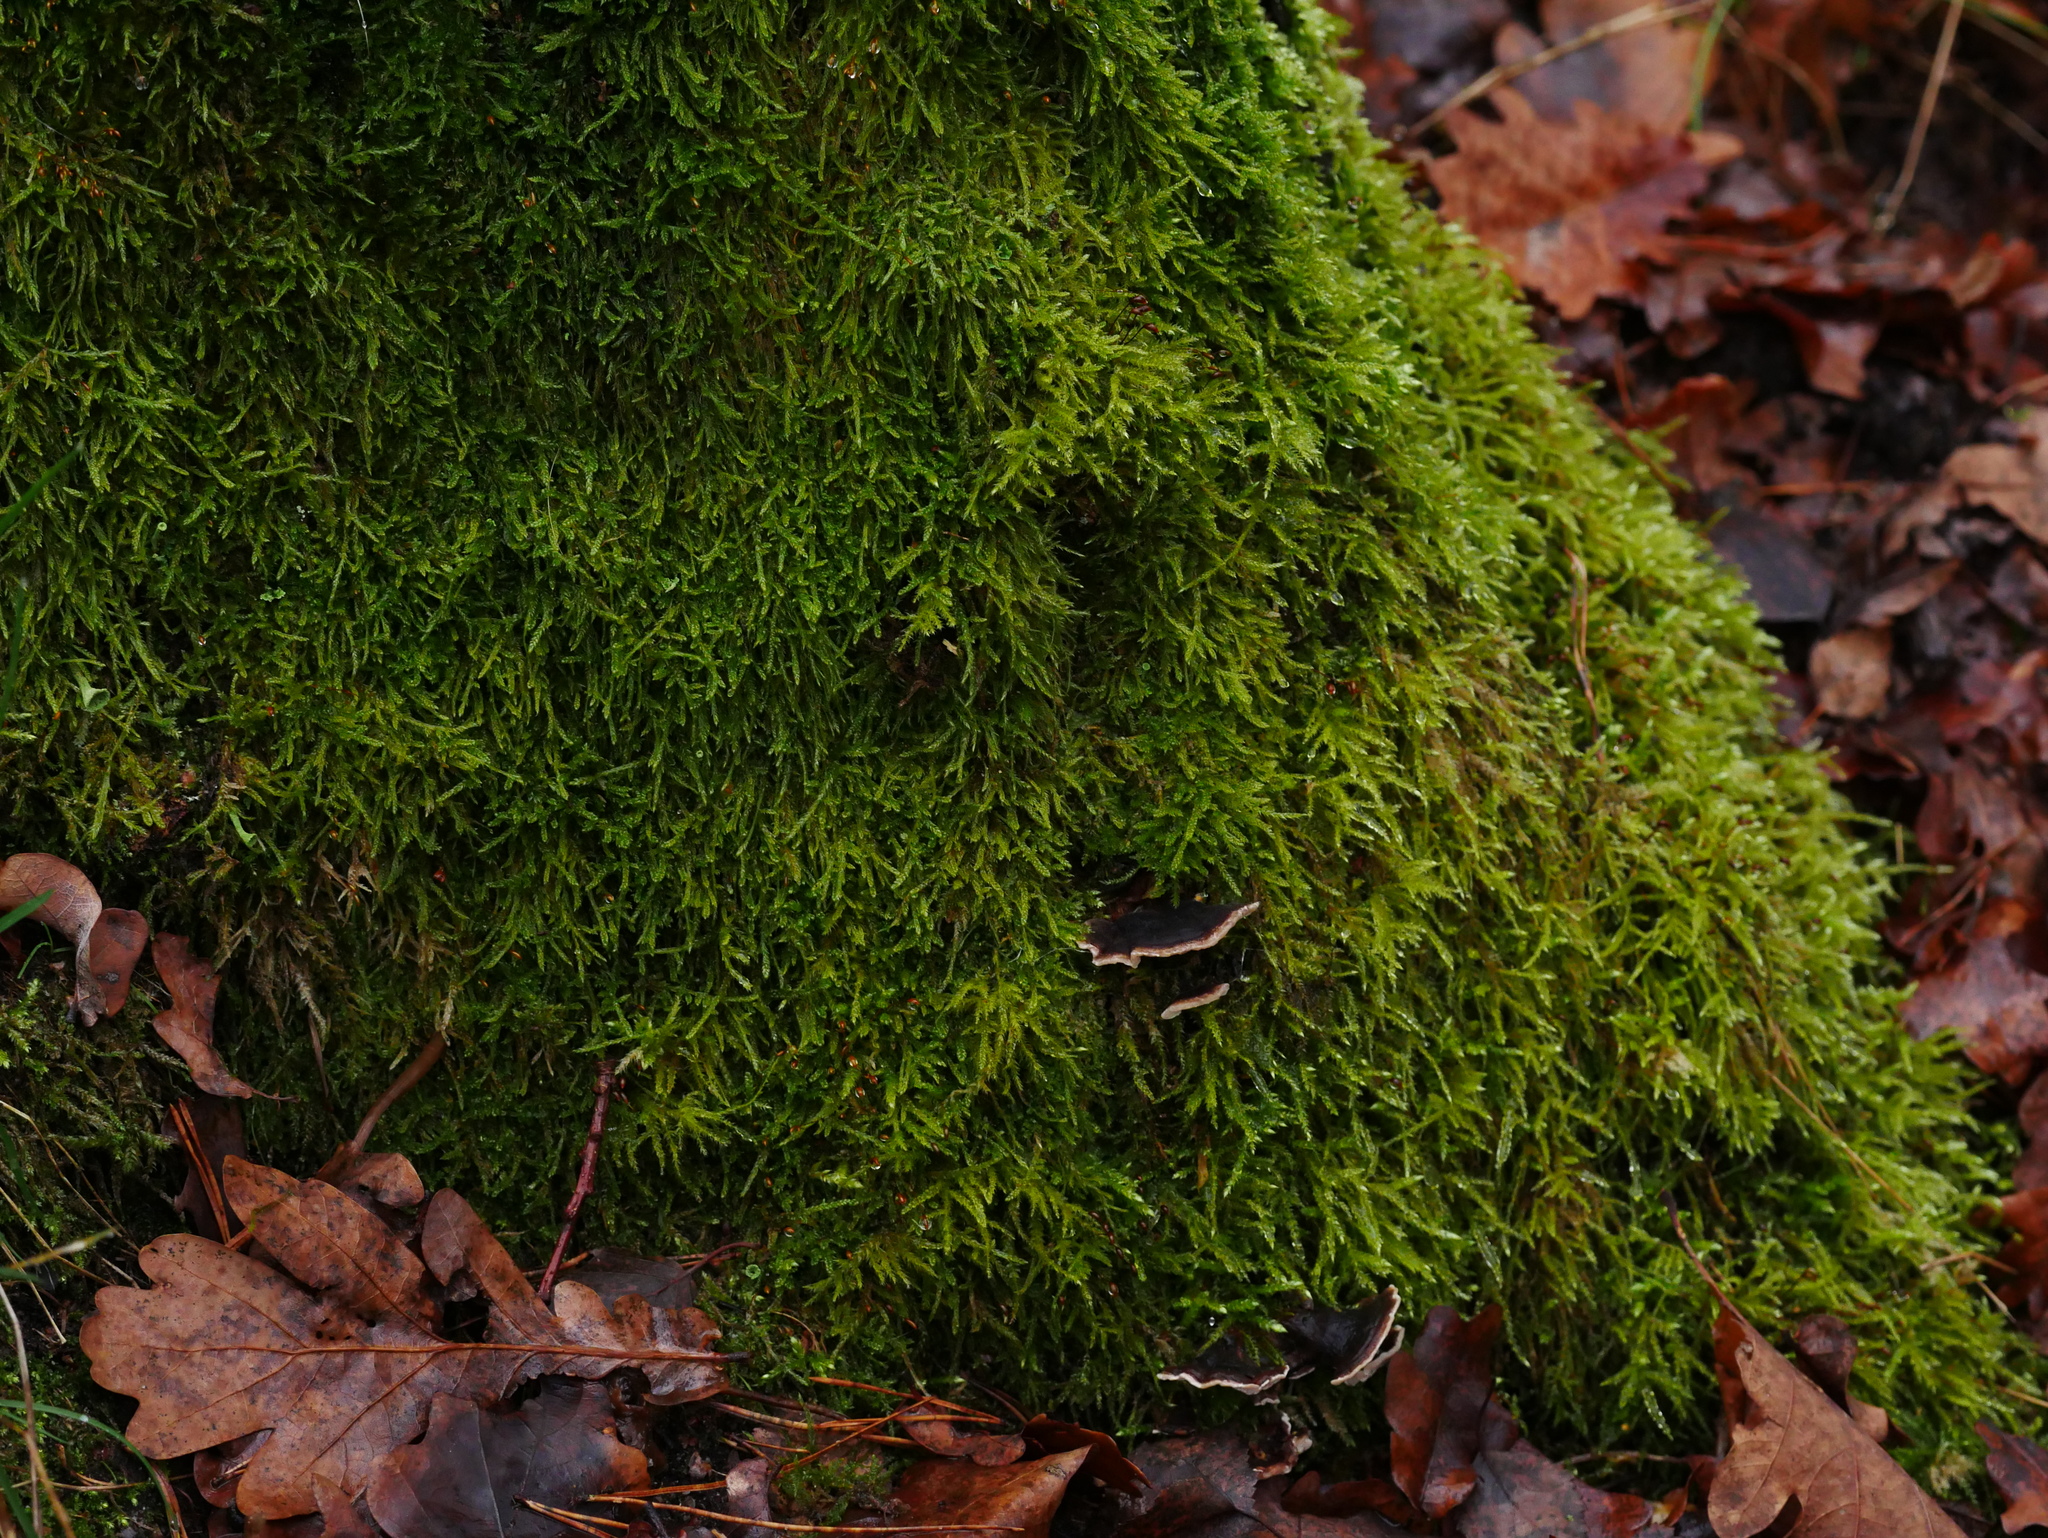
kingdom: Plantae
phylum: Bryophyta
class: Bryopsida
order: Hypnales
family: Hypnaceae
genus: Hypnum
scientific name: Hypnum cupressiforme
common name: Cypress-leaved plait-moss
